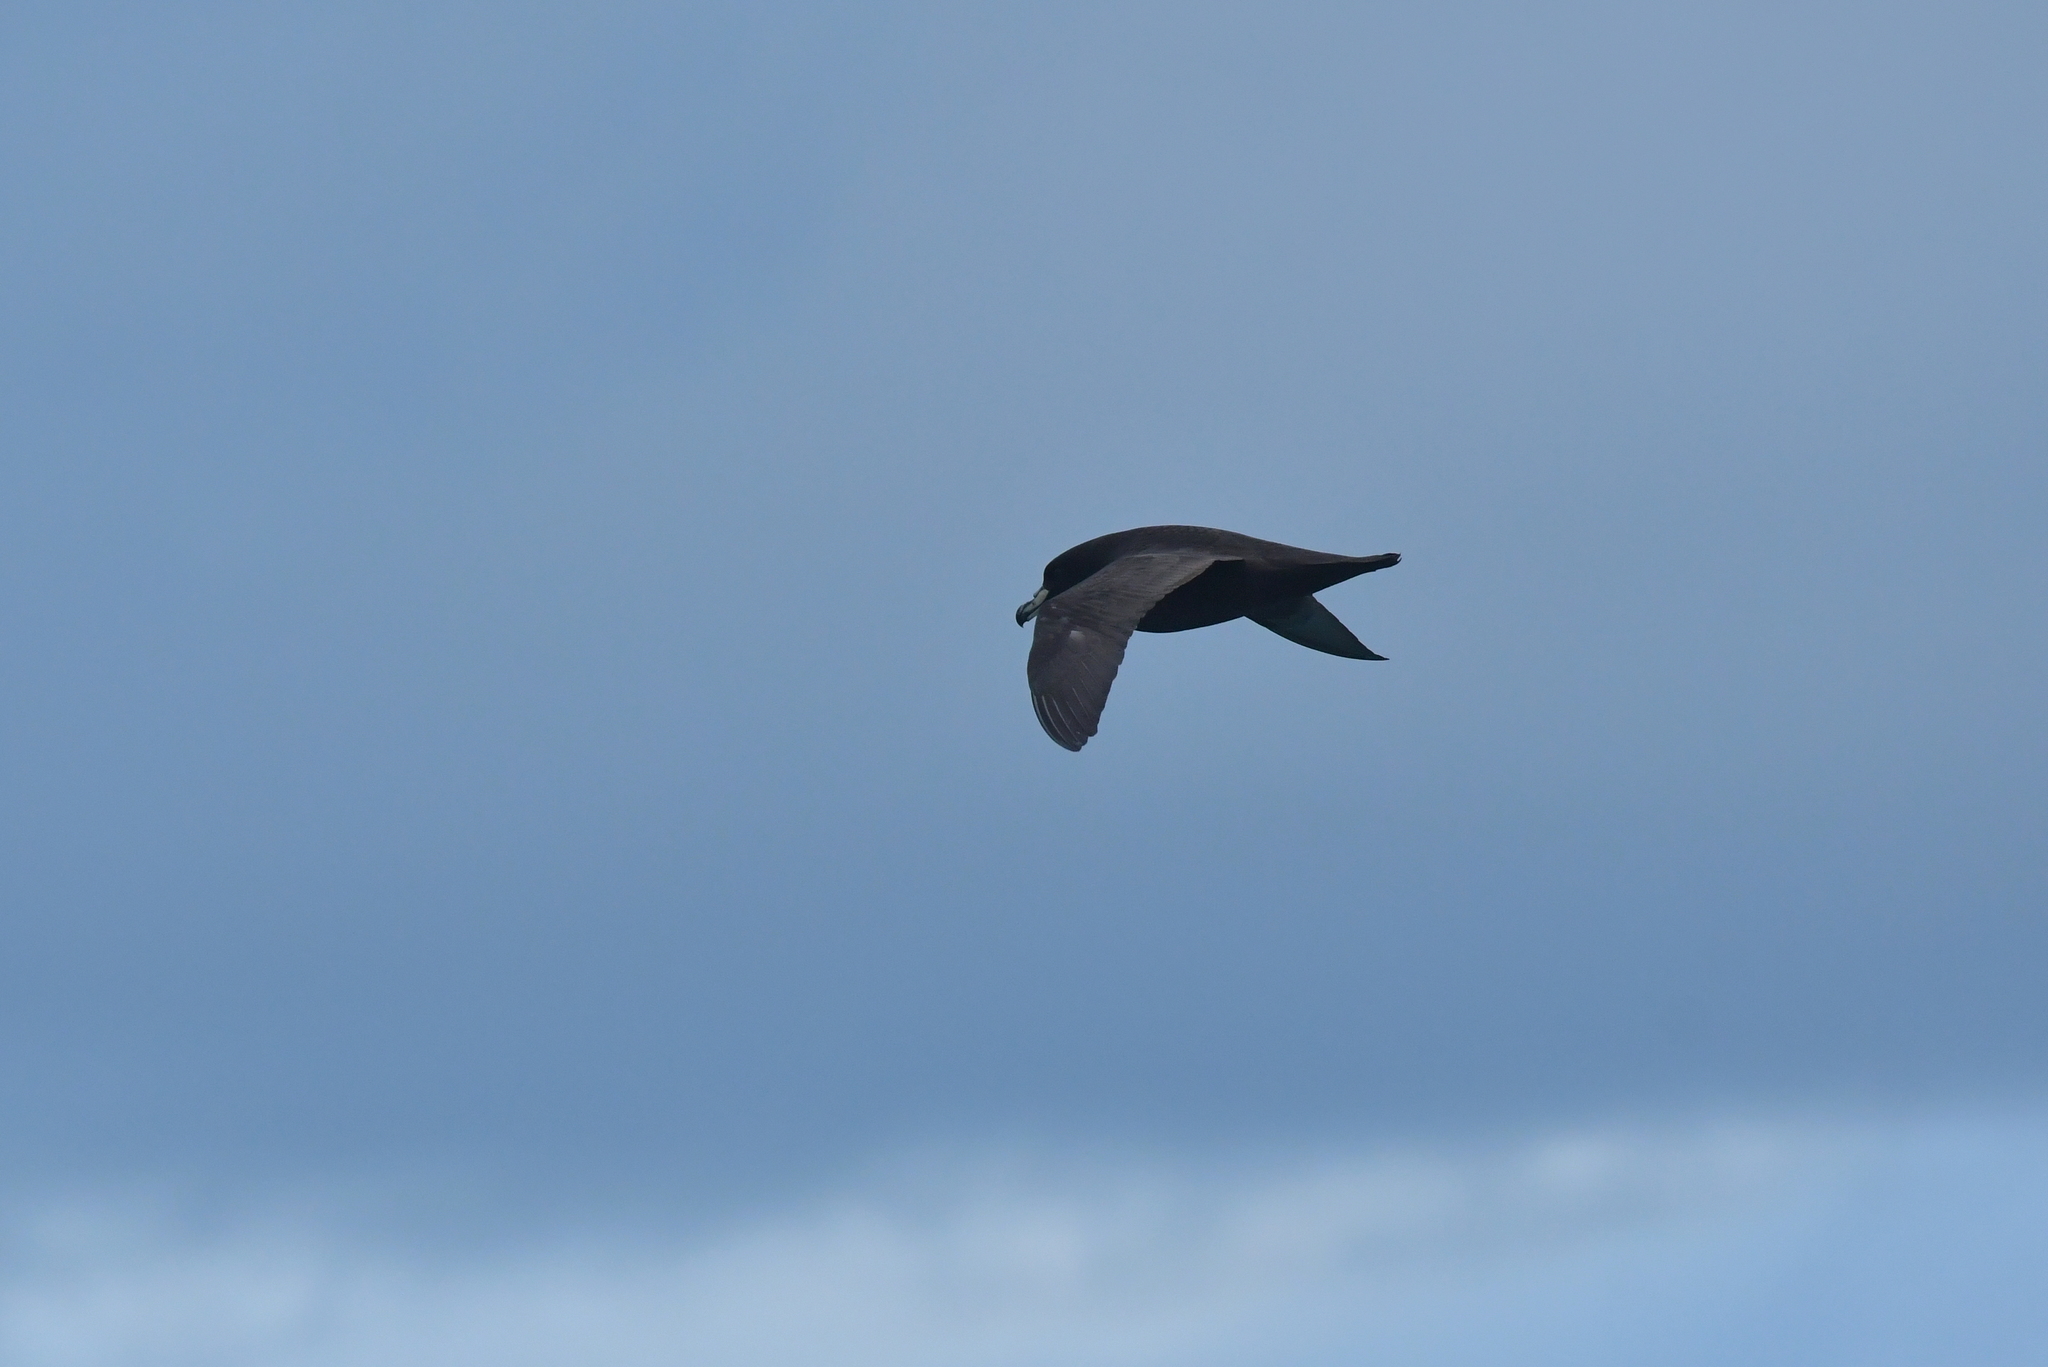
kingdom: Animalia
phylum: Chordata
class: Aves
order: Procellariiformes
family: Procellariidae
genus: Procellaria
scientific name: Procellaria westlandica
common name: Westland petrel
